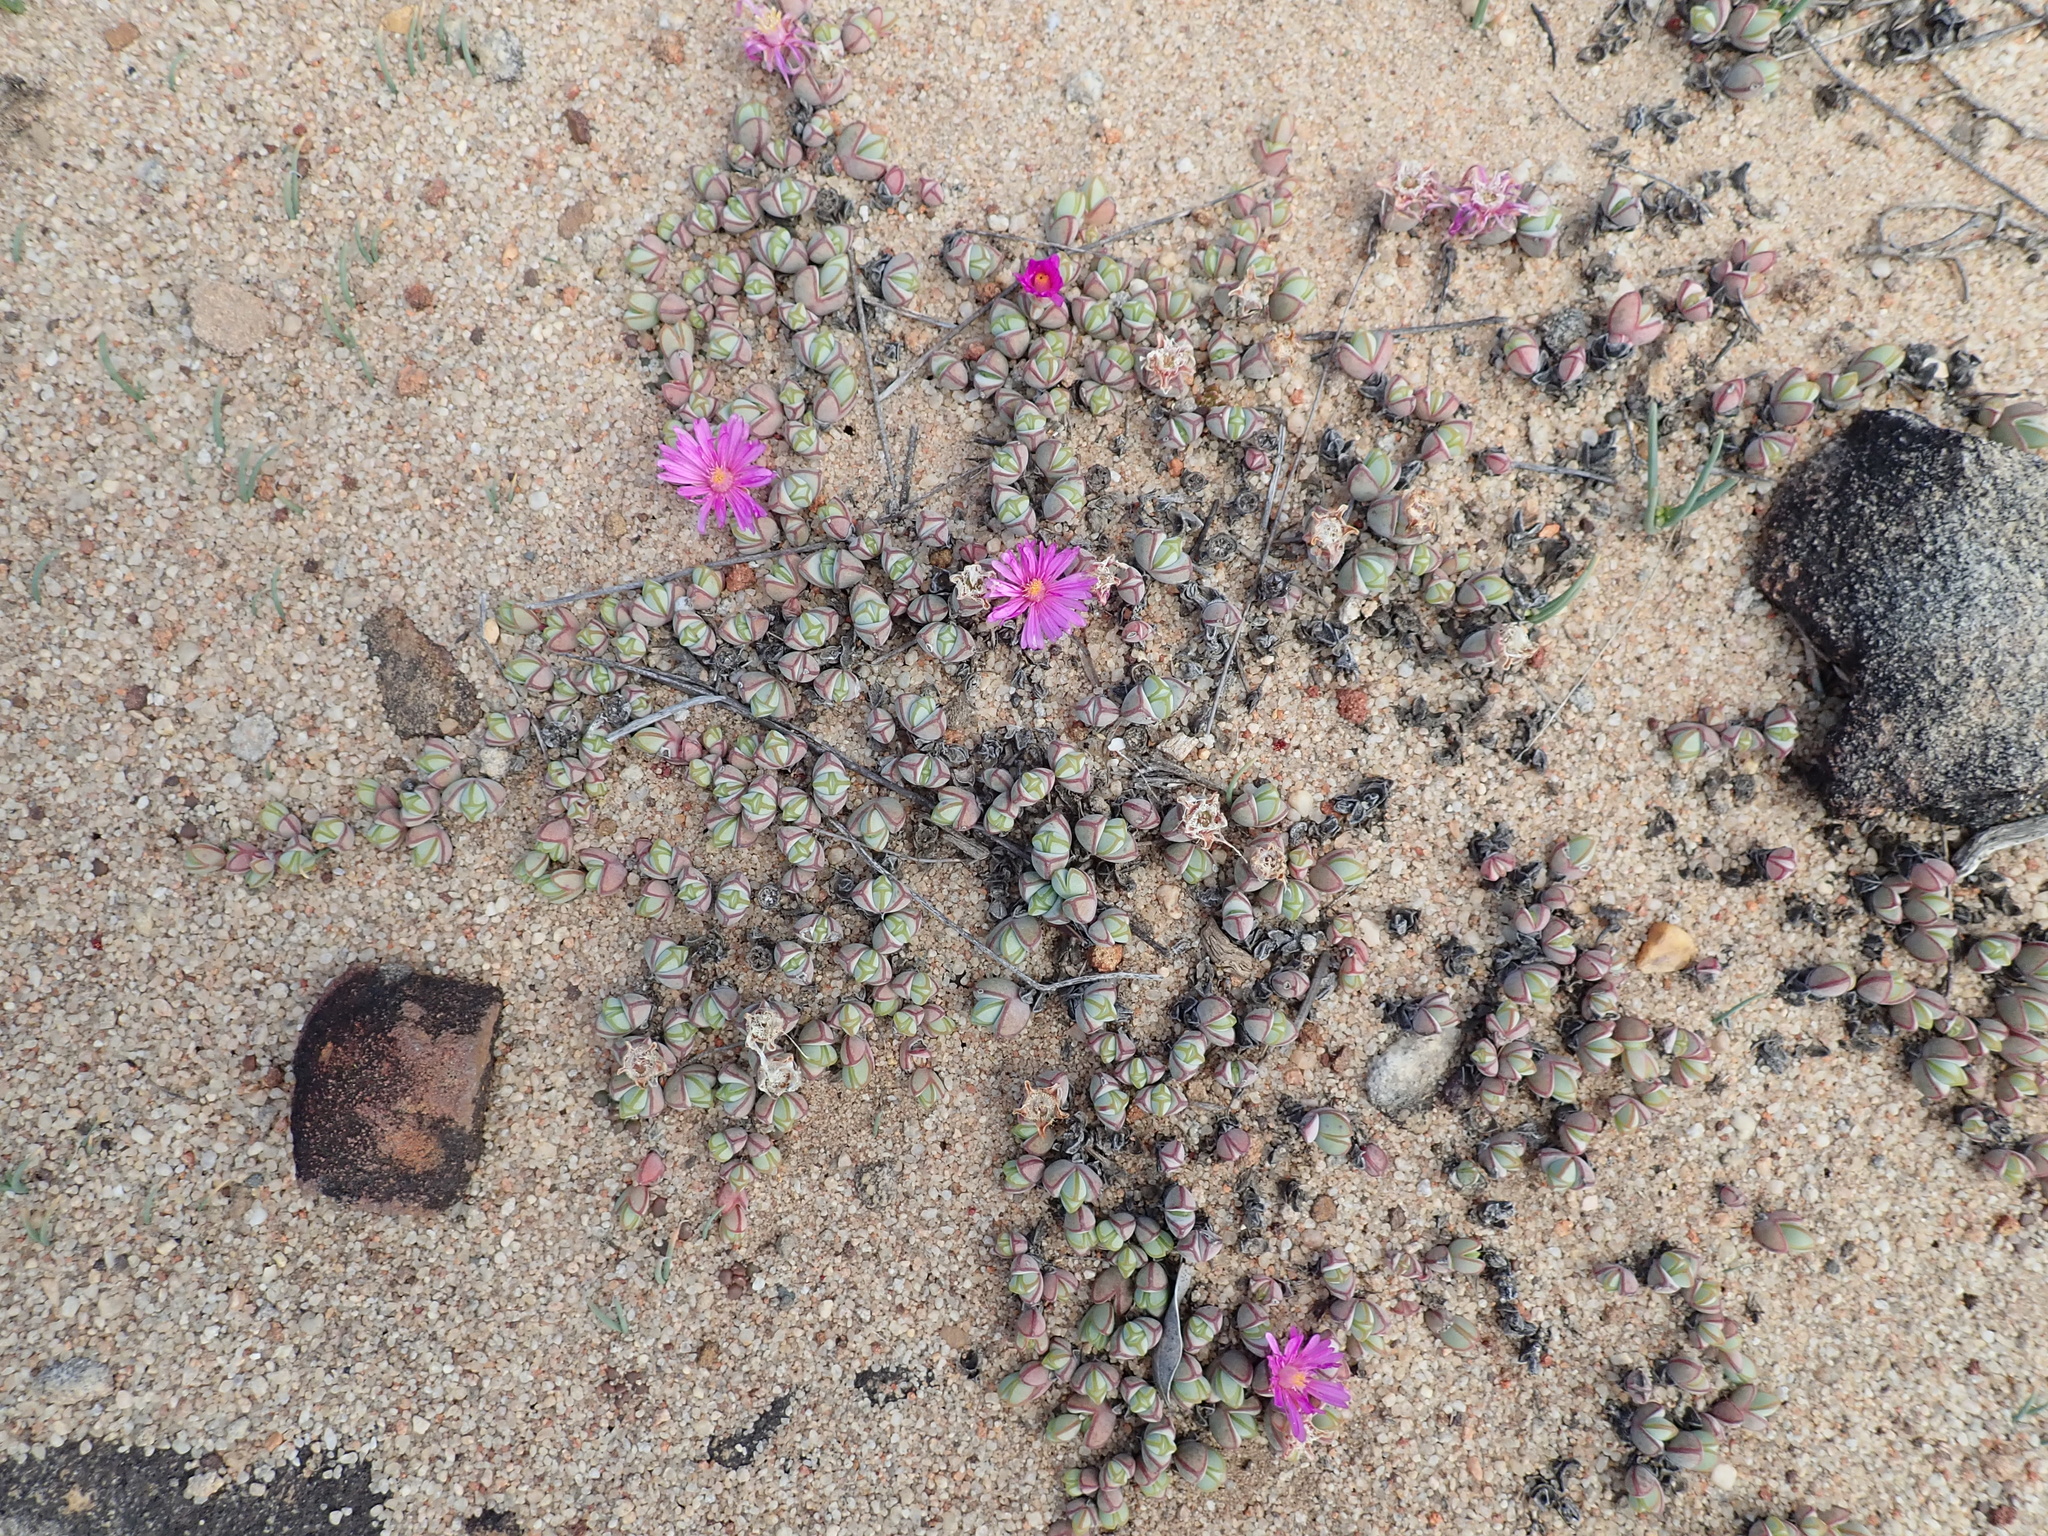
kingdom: Plantae
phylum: Tracheophyta
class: Magnoliopsida
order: Caryophyllales
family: Aizoaceae
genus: Braunsia
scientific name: Braunsia maximiliani
